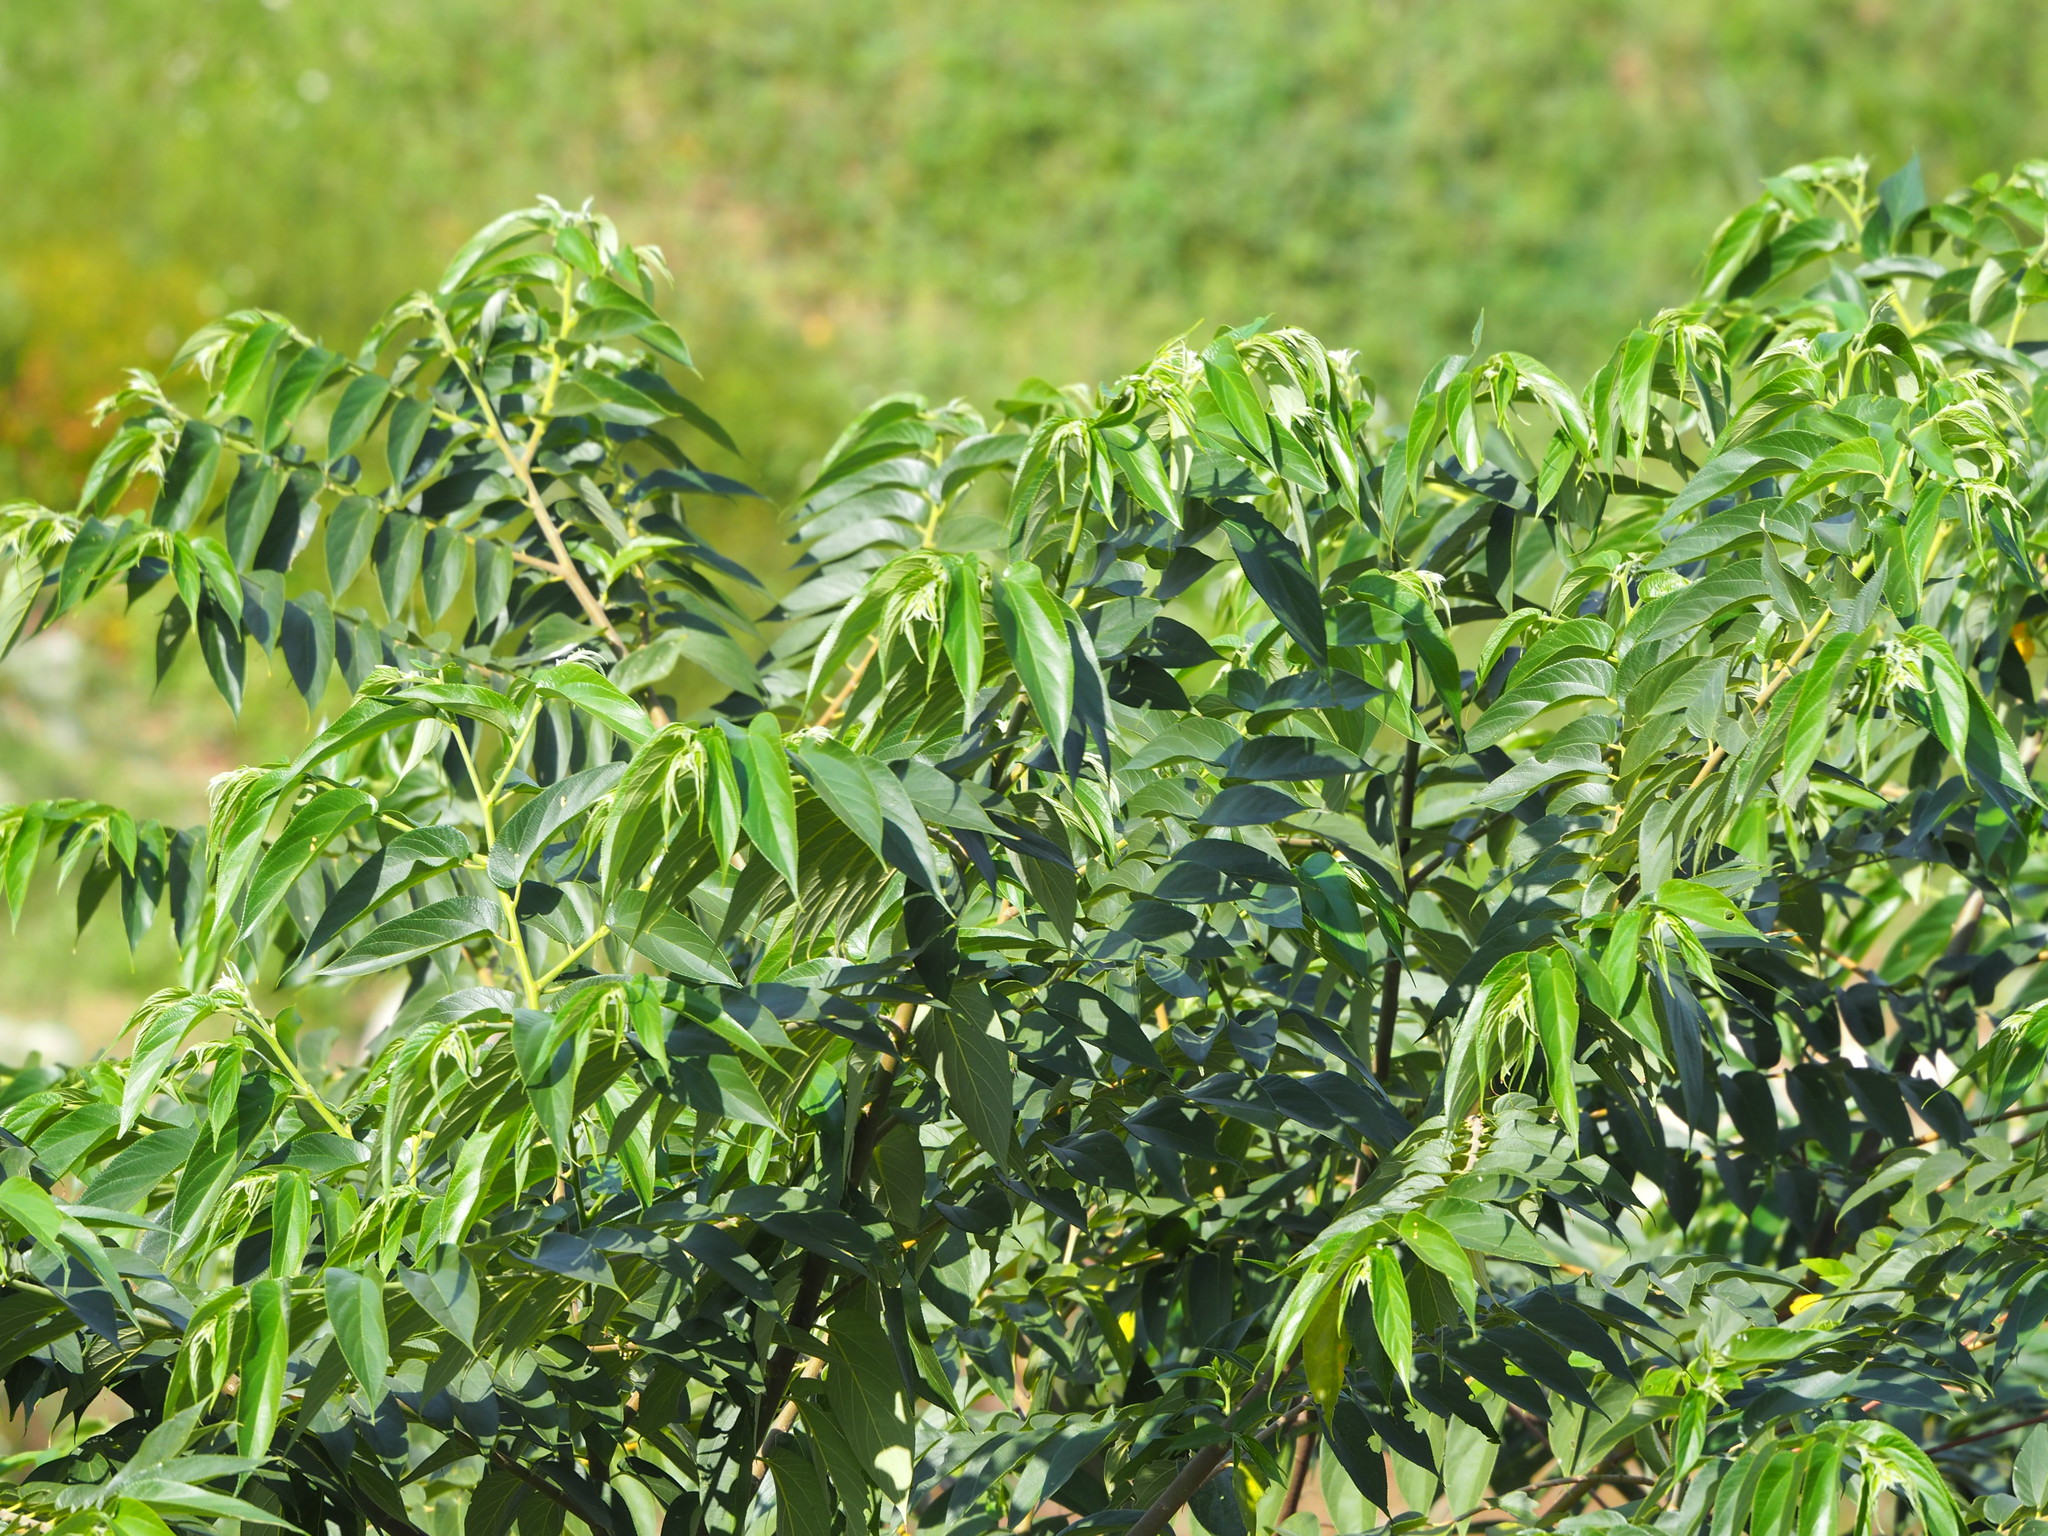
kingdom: Plantae
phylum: Tracheophyta
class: Magnoliopsida
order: Rosales
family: Cannabaceae
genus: Trema
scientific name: Trema orientale
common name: Indian charcoal tree
